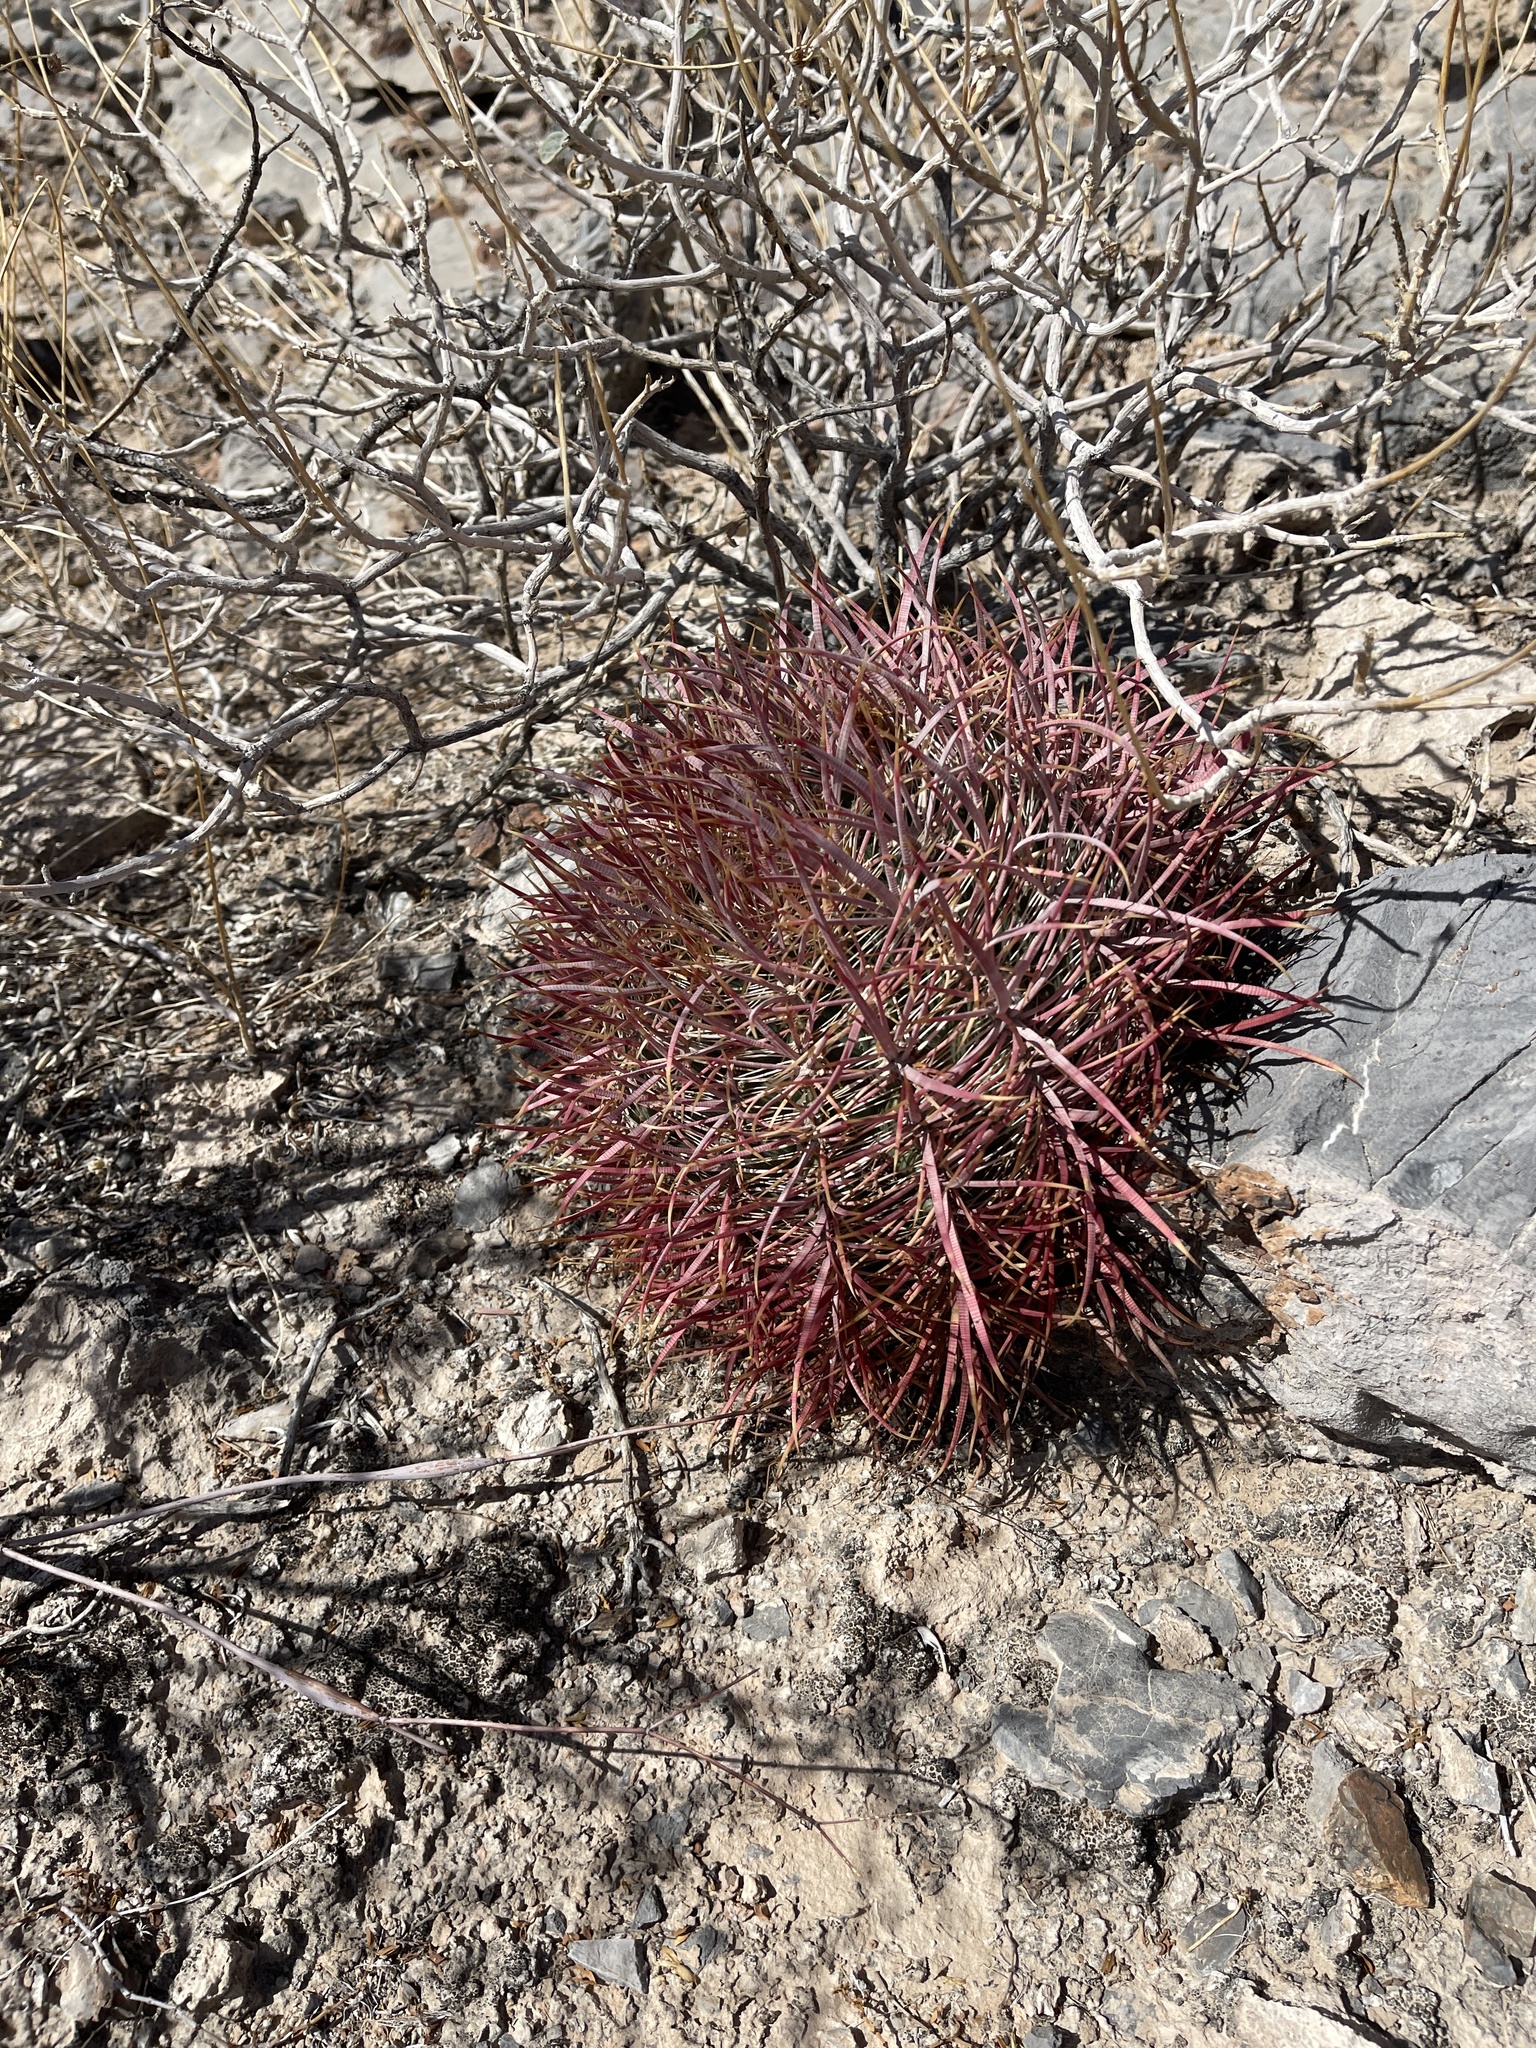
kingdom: Plantae
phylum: Tracheophyta
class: Magnoliopsida
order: Caryophyllales
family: Cactaceae
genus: Ferocactus
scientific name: Ferocactus cylindraceus
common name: California barrel cactus
